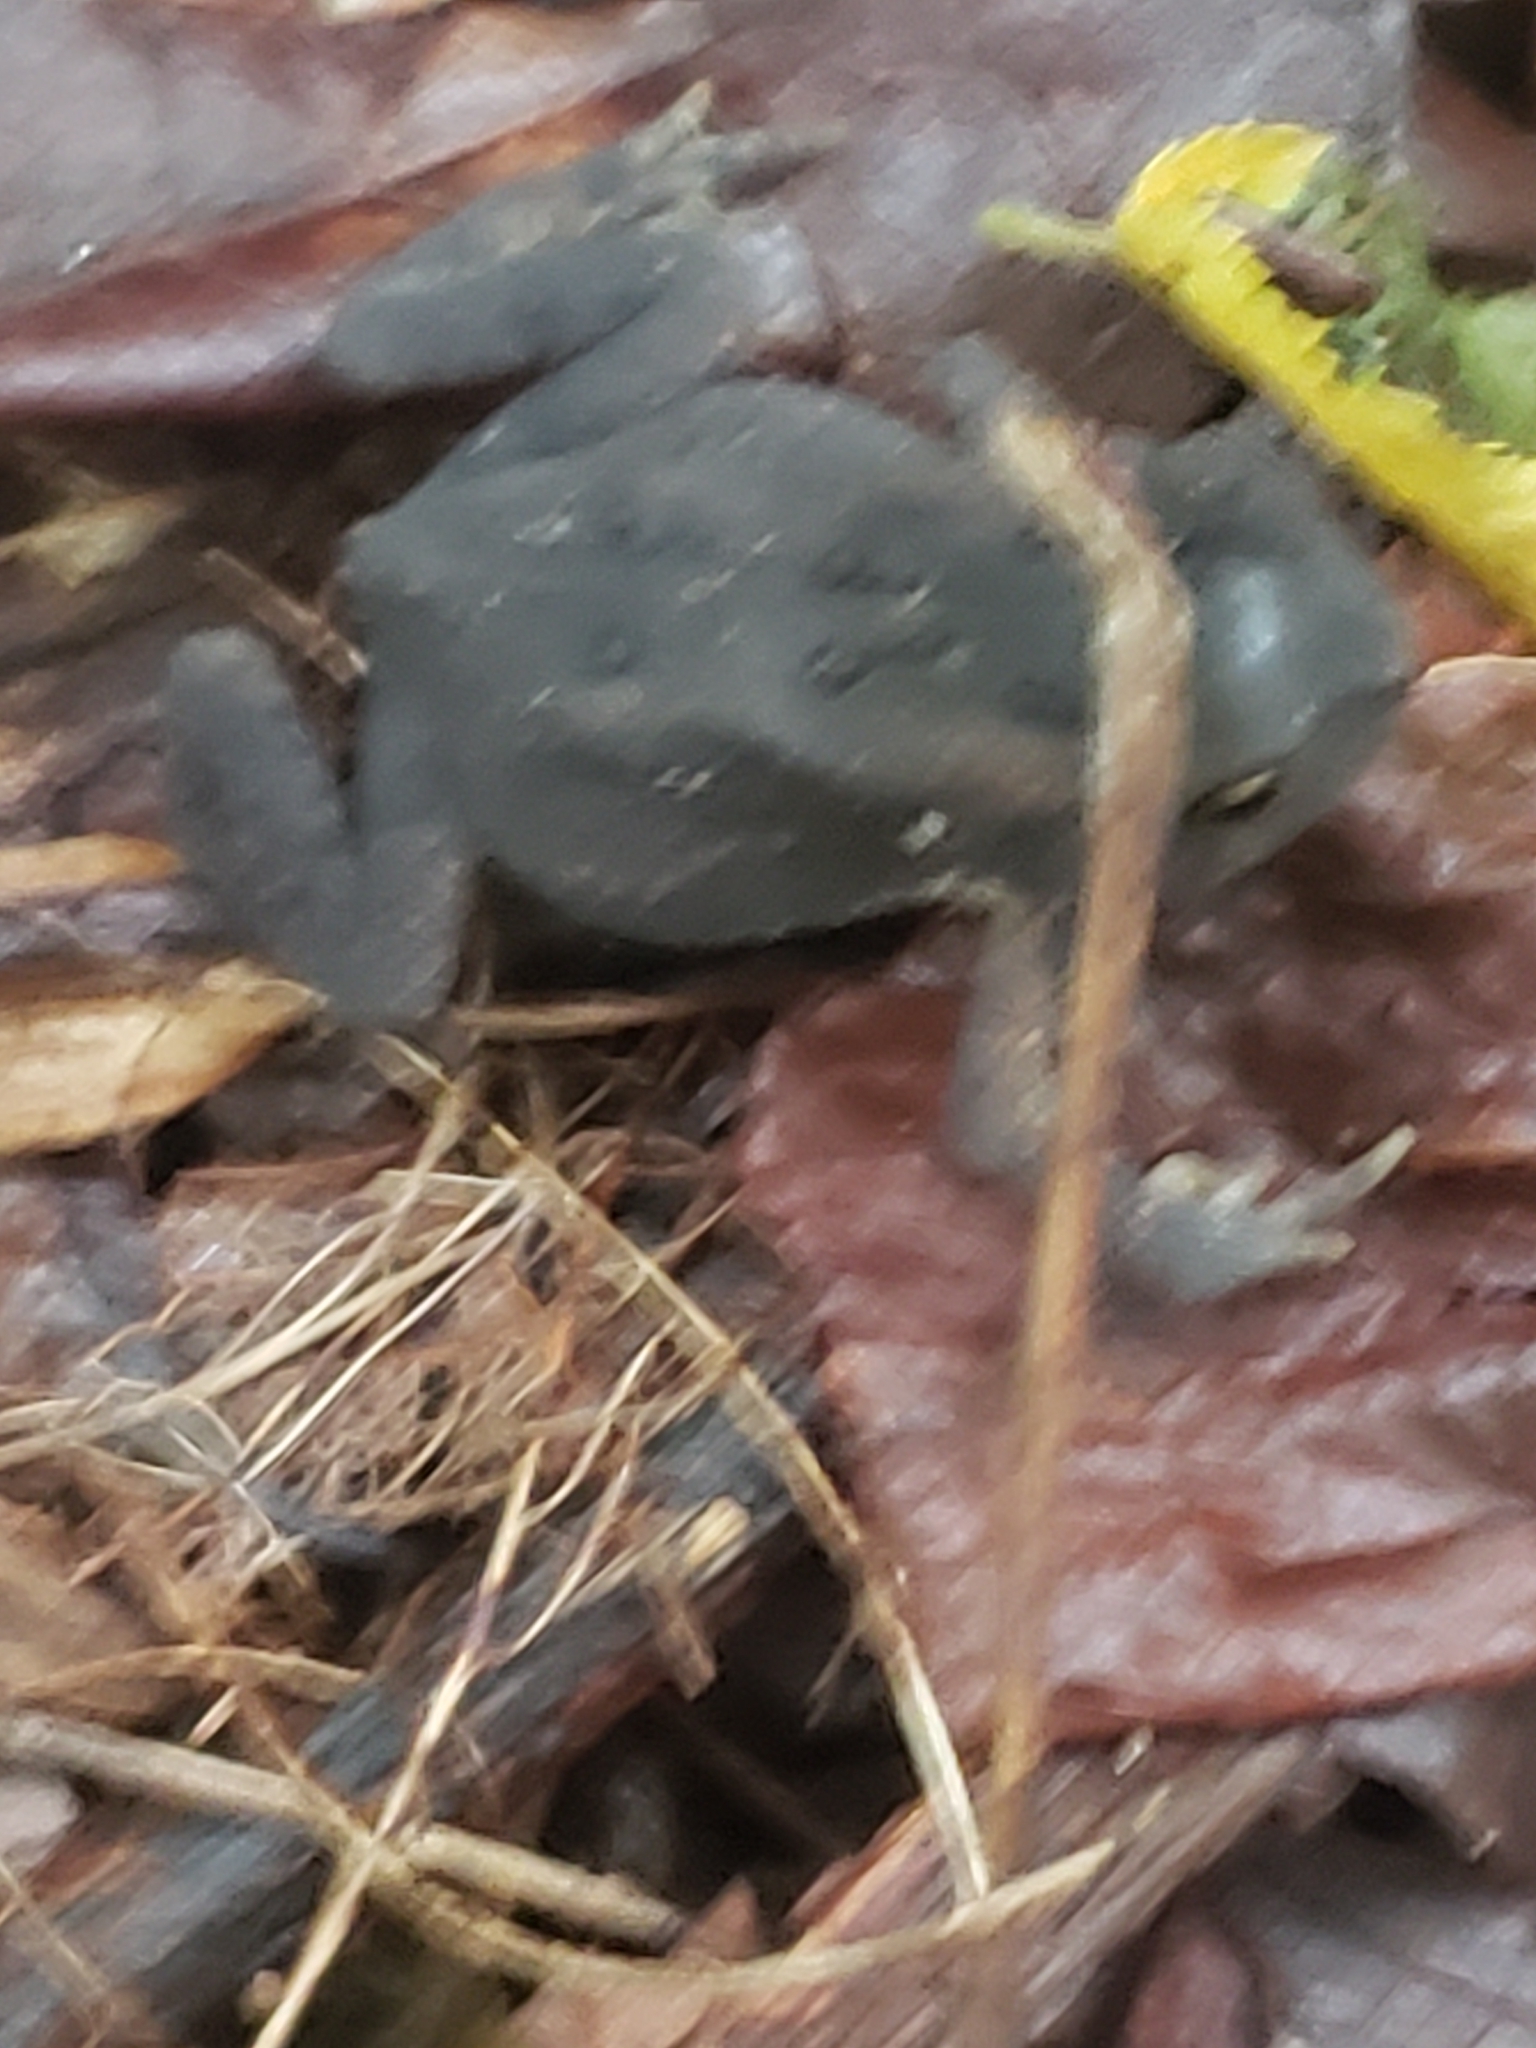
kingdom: Animalia
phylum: Chordata
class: Amphibia
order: Anura
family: Bufonidae
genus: Anaxyrus
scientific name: Anaxyrus americanus
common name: American toad
